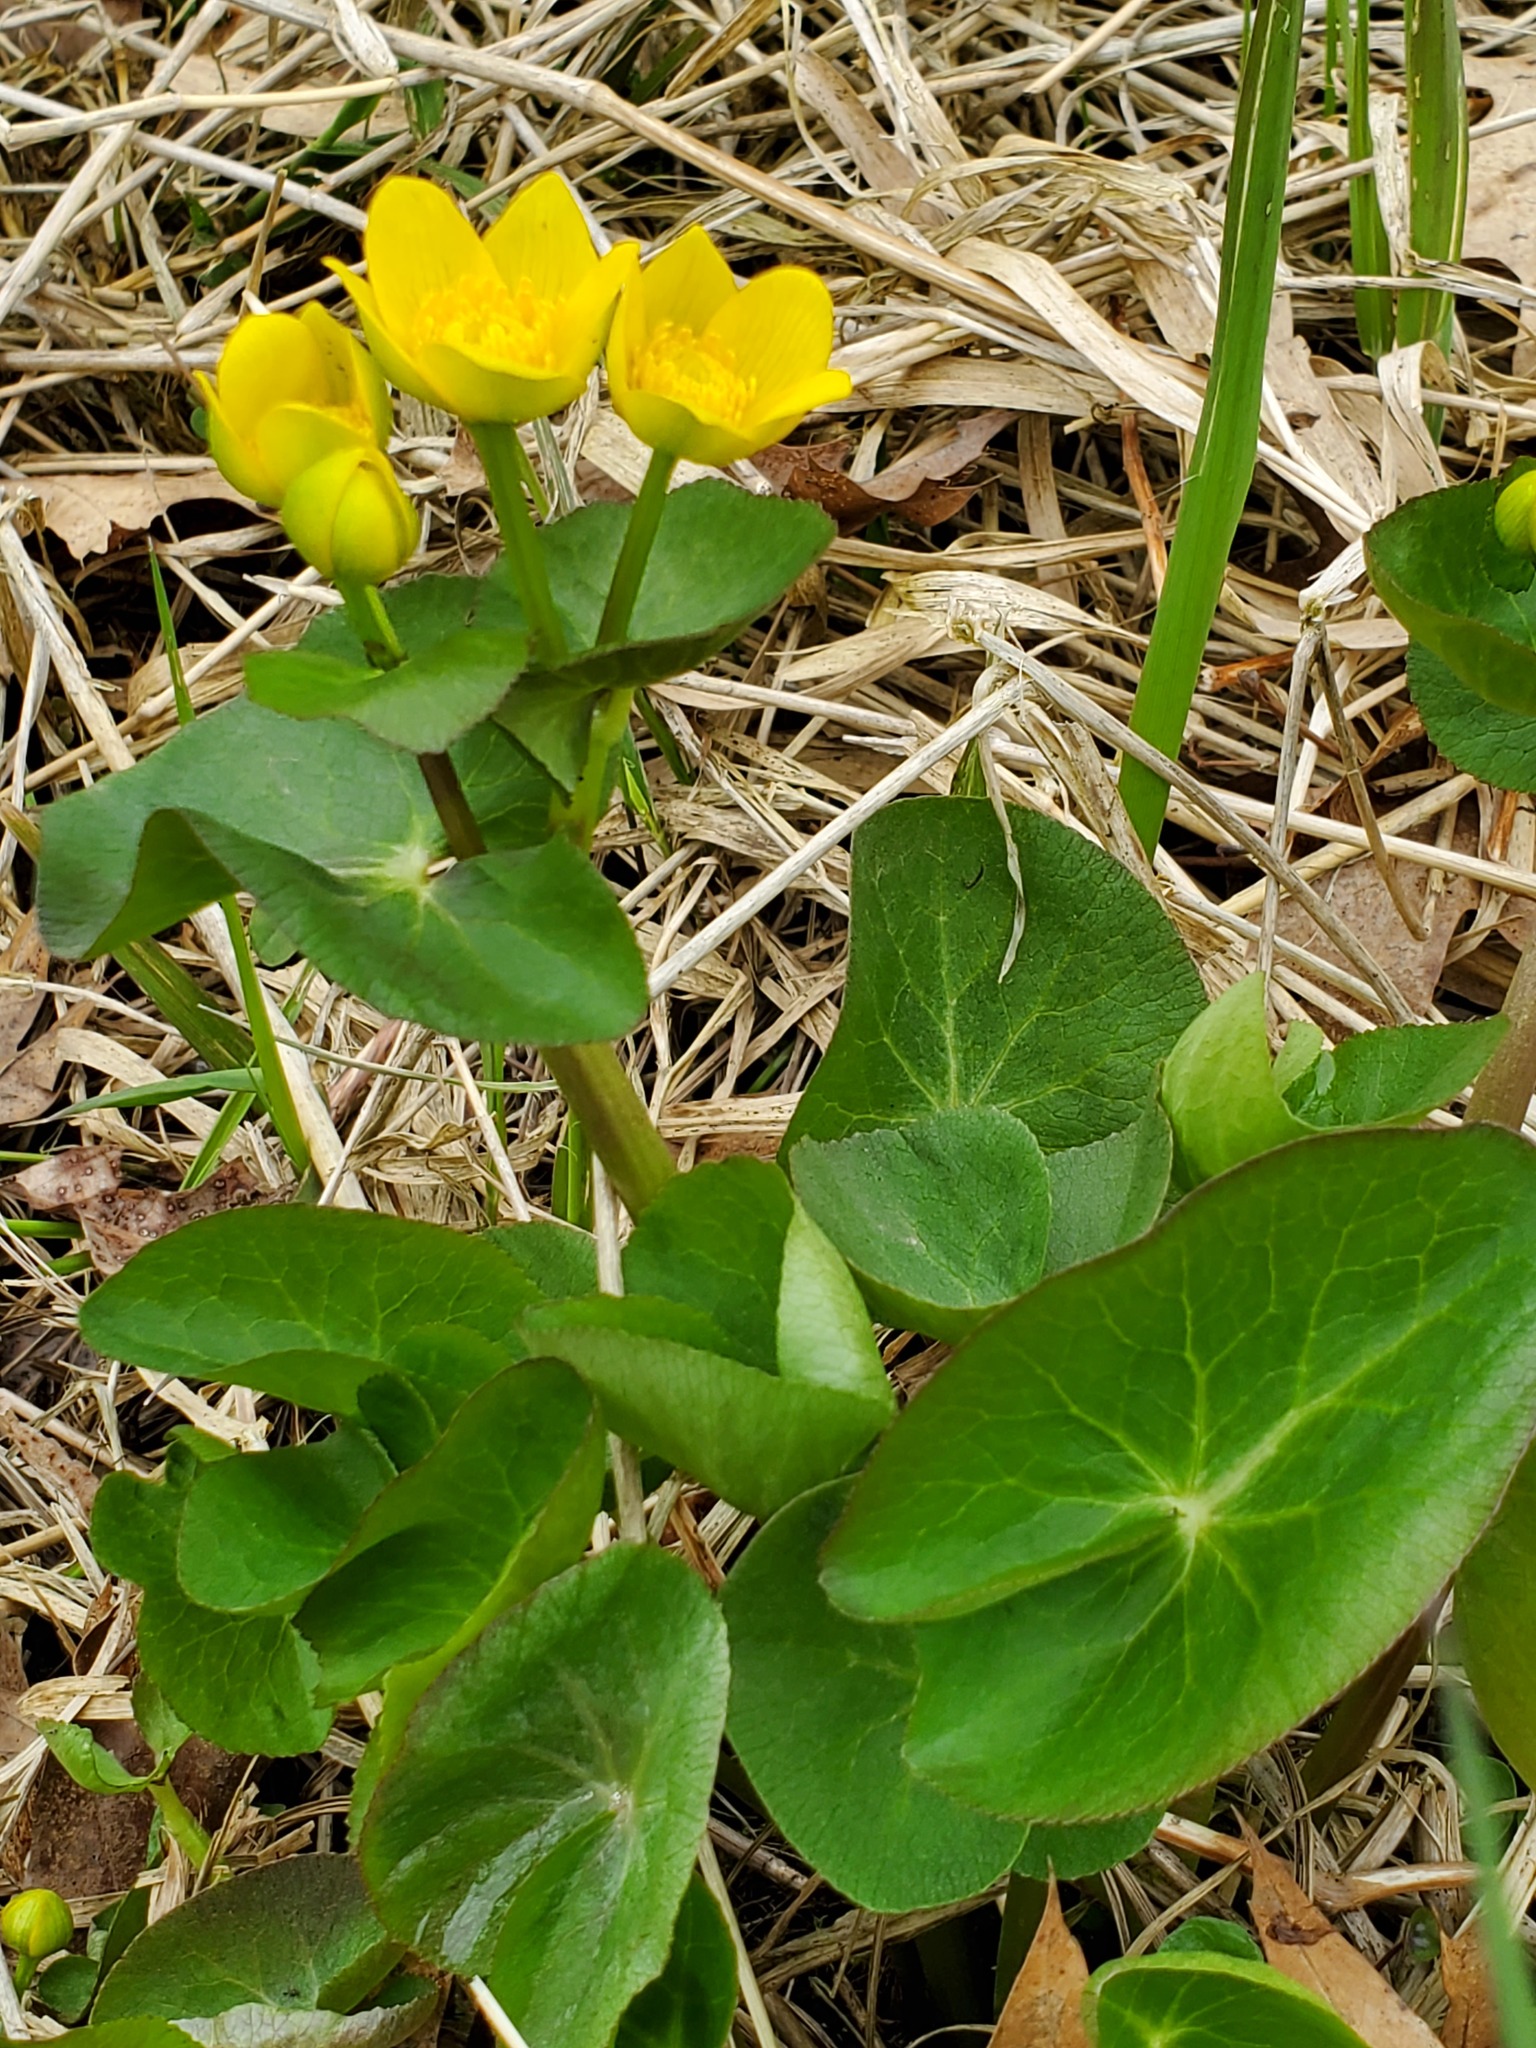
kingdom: Plantae
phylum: Tracheophyta
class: Magnoliopsida
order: Ranunculales
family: Ranunculaceae
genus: Caltha
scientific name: Caltha palustris
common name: Marsh marigold
